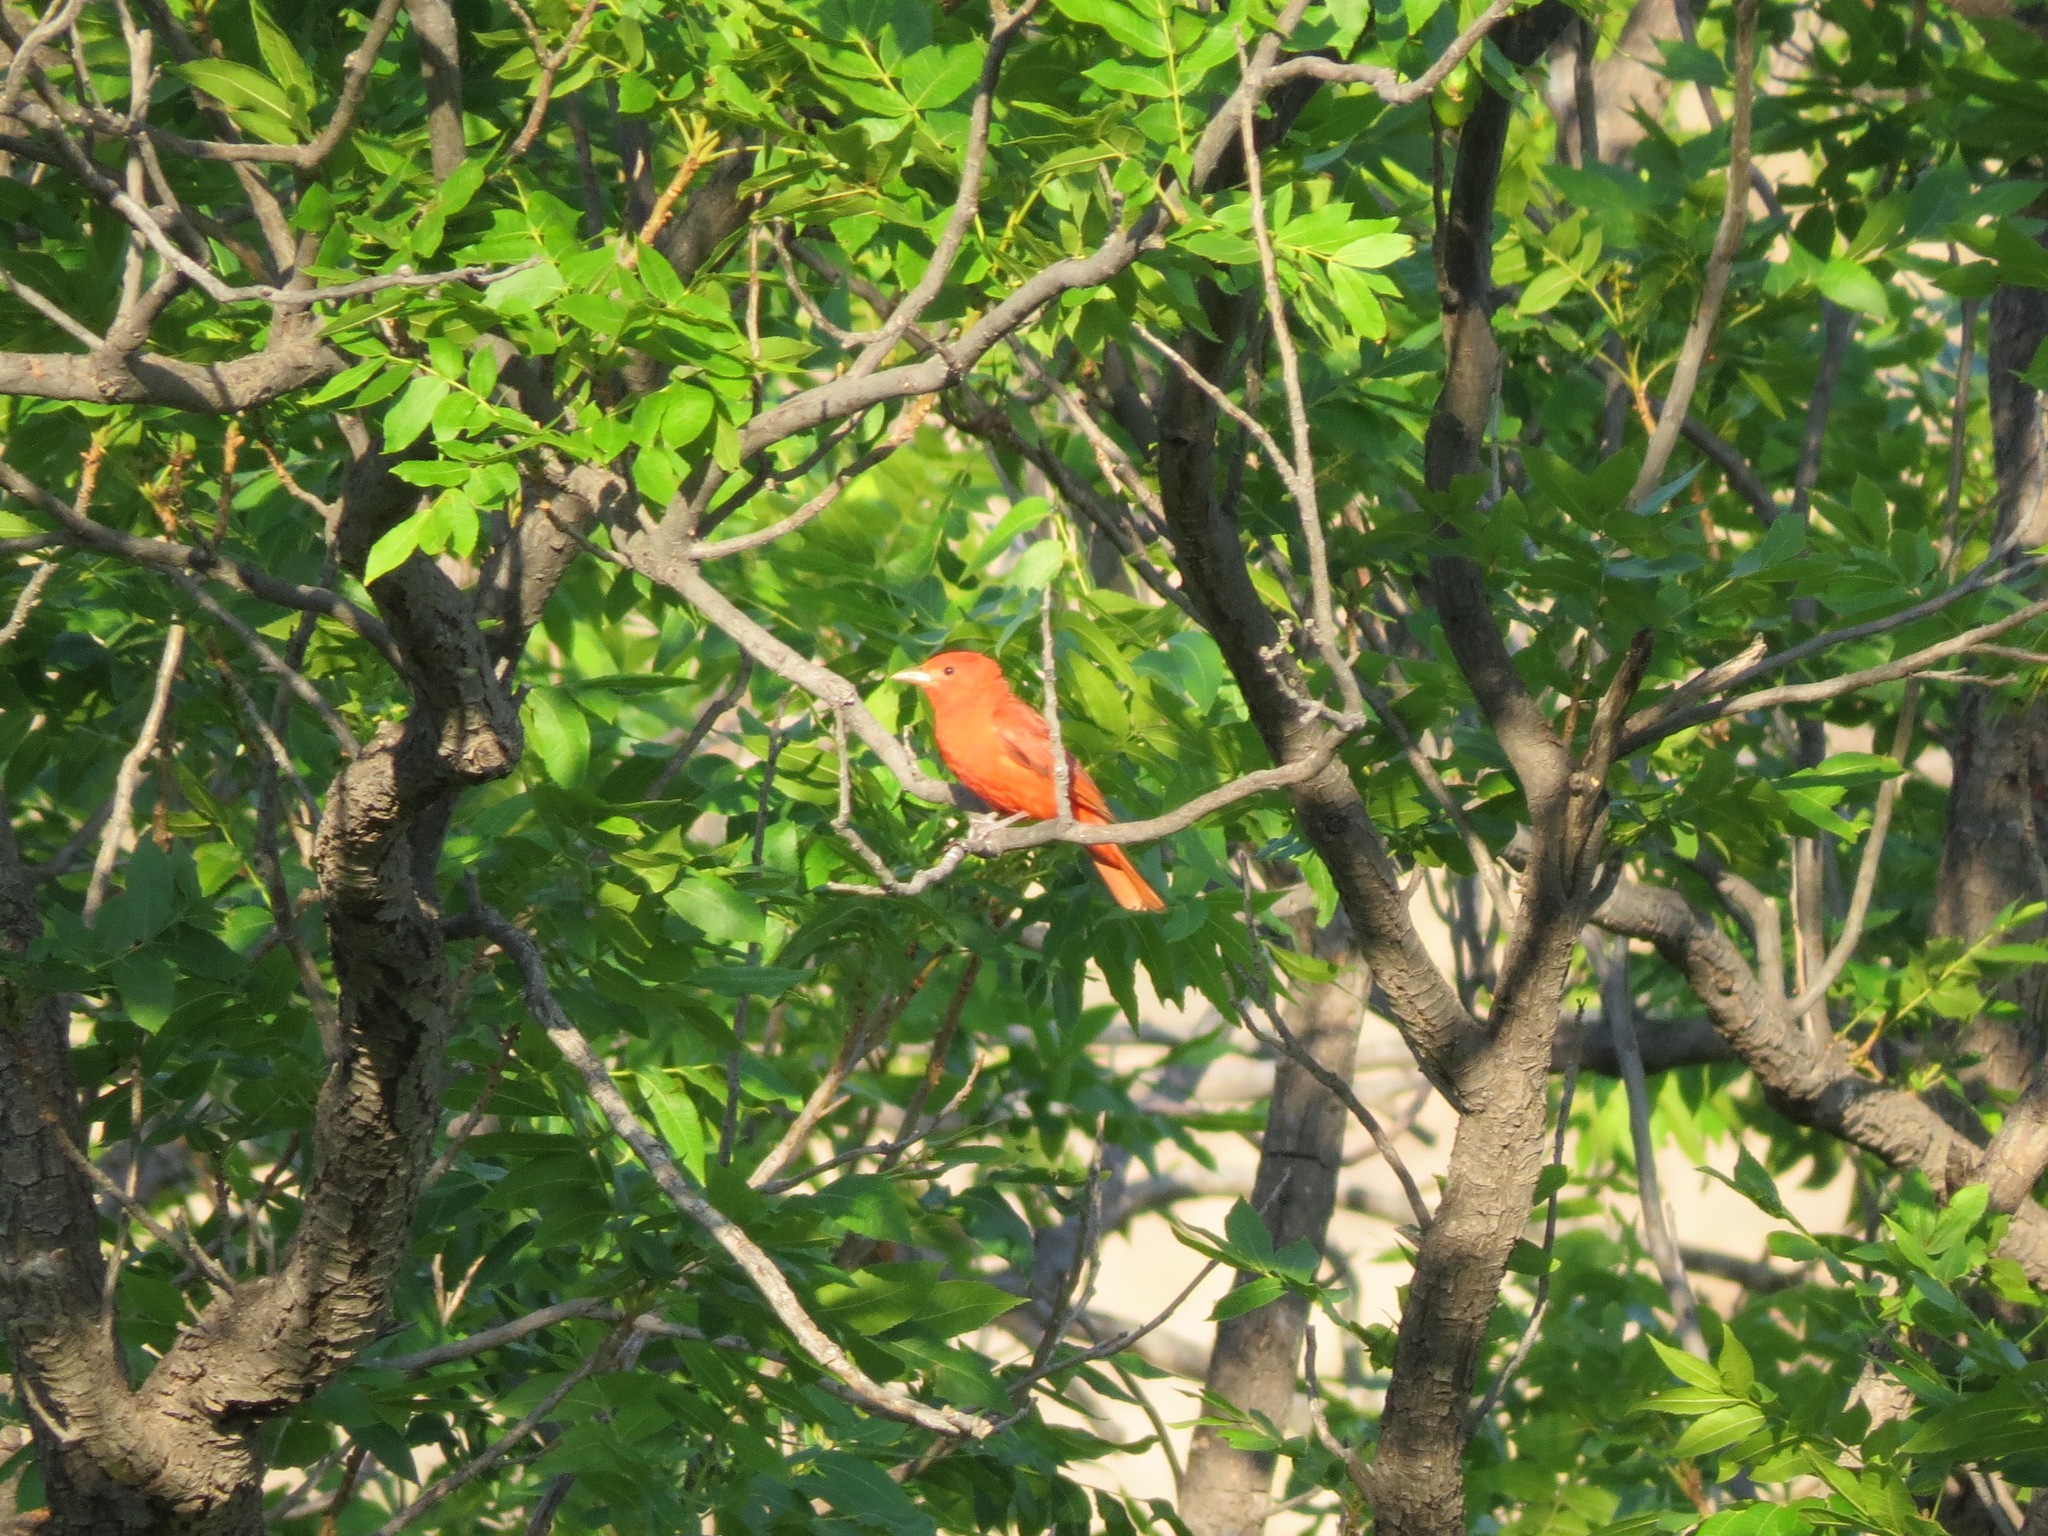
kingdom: Animalia
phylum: Chordata
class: Aves
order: Passeriformes
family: Cardinalidae
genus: Piranga
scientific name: Piranga rubra
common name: Summer tanager
